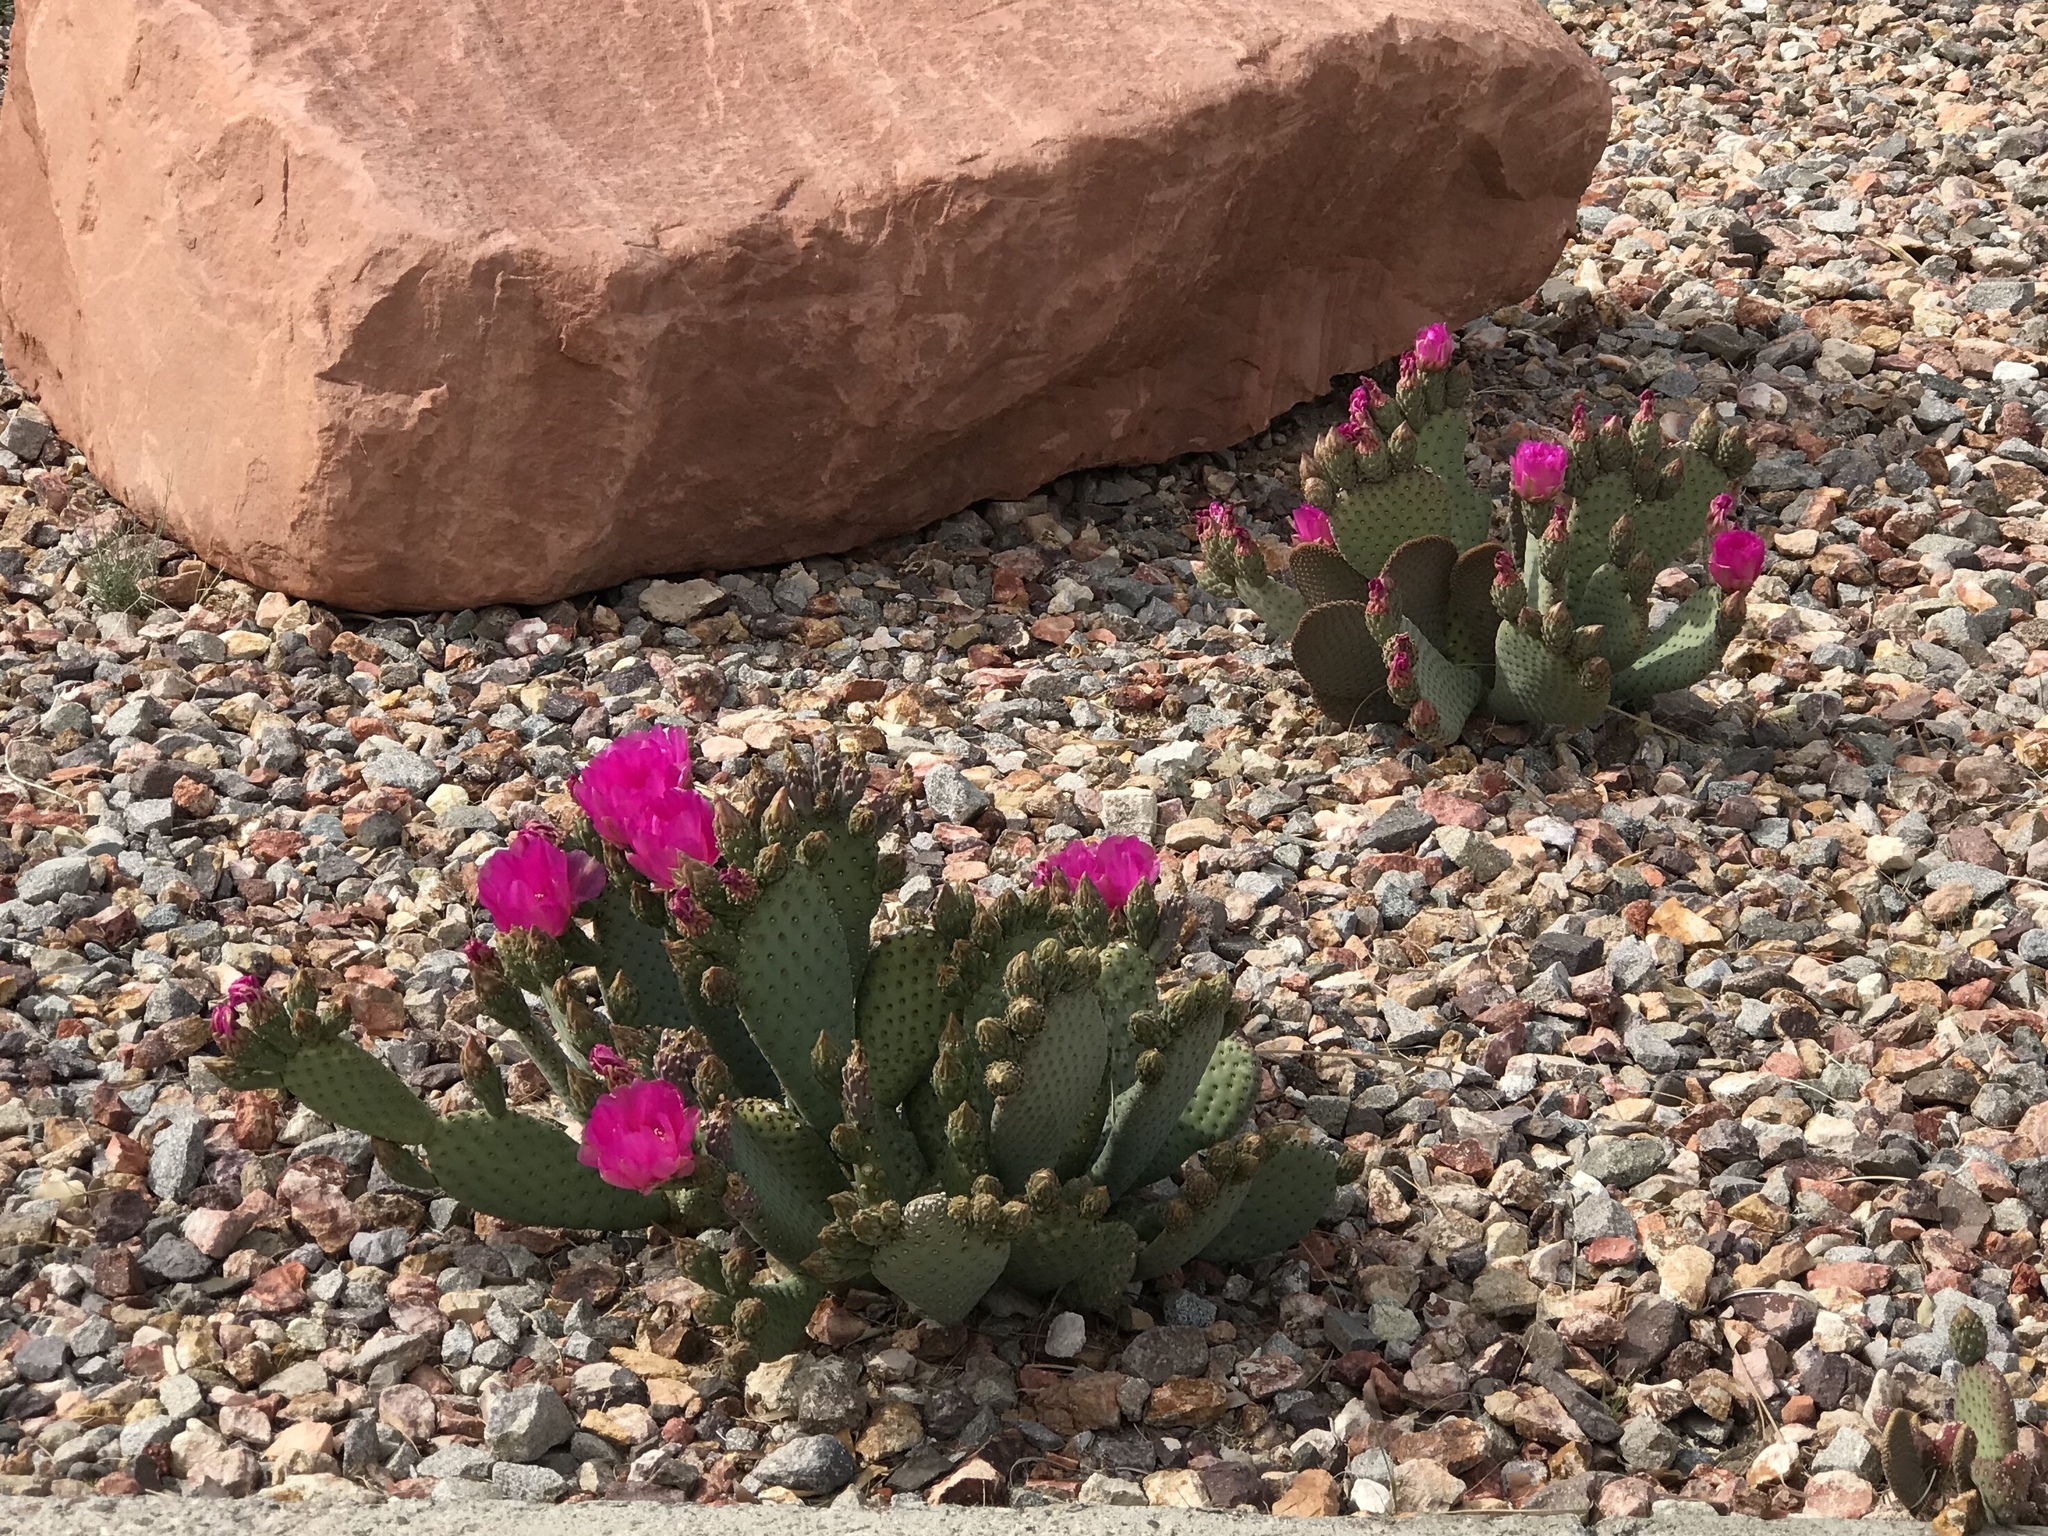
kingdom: Plantae
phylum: Tracheophyta
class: Magnoliopsida
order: Caryophyllales
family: Cactaceae
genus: Opuntia
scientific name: Opuntia basilaris
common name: Beavertail prickly-pear
